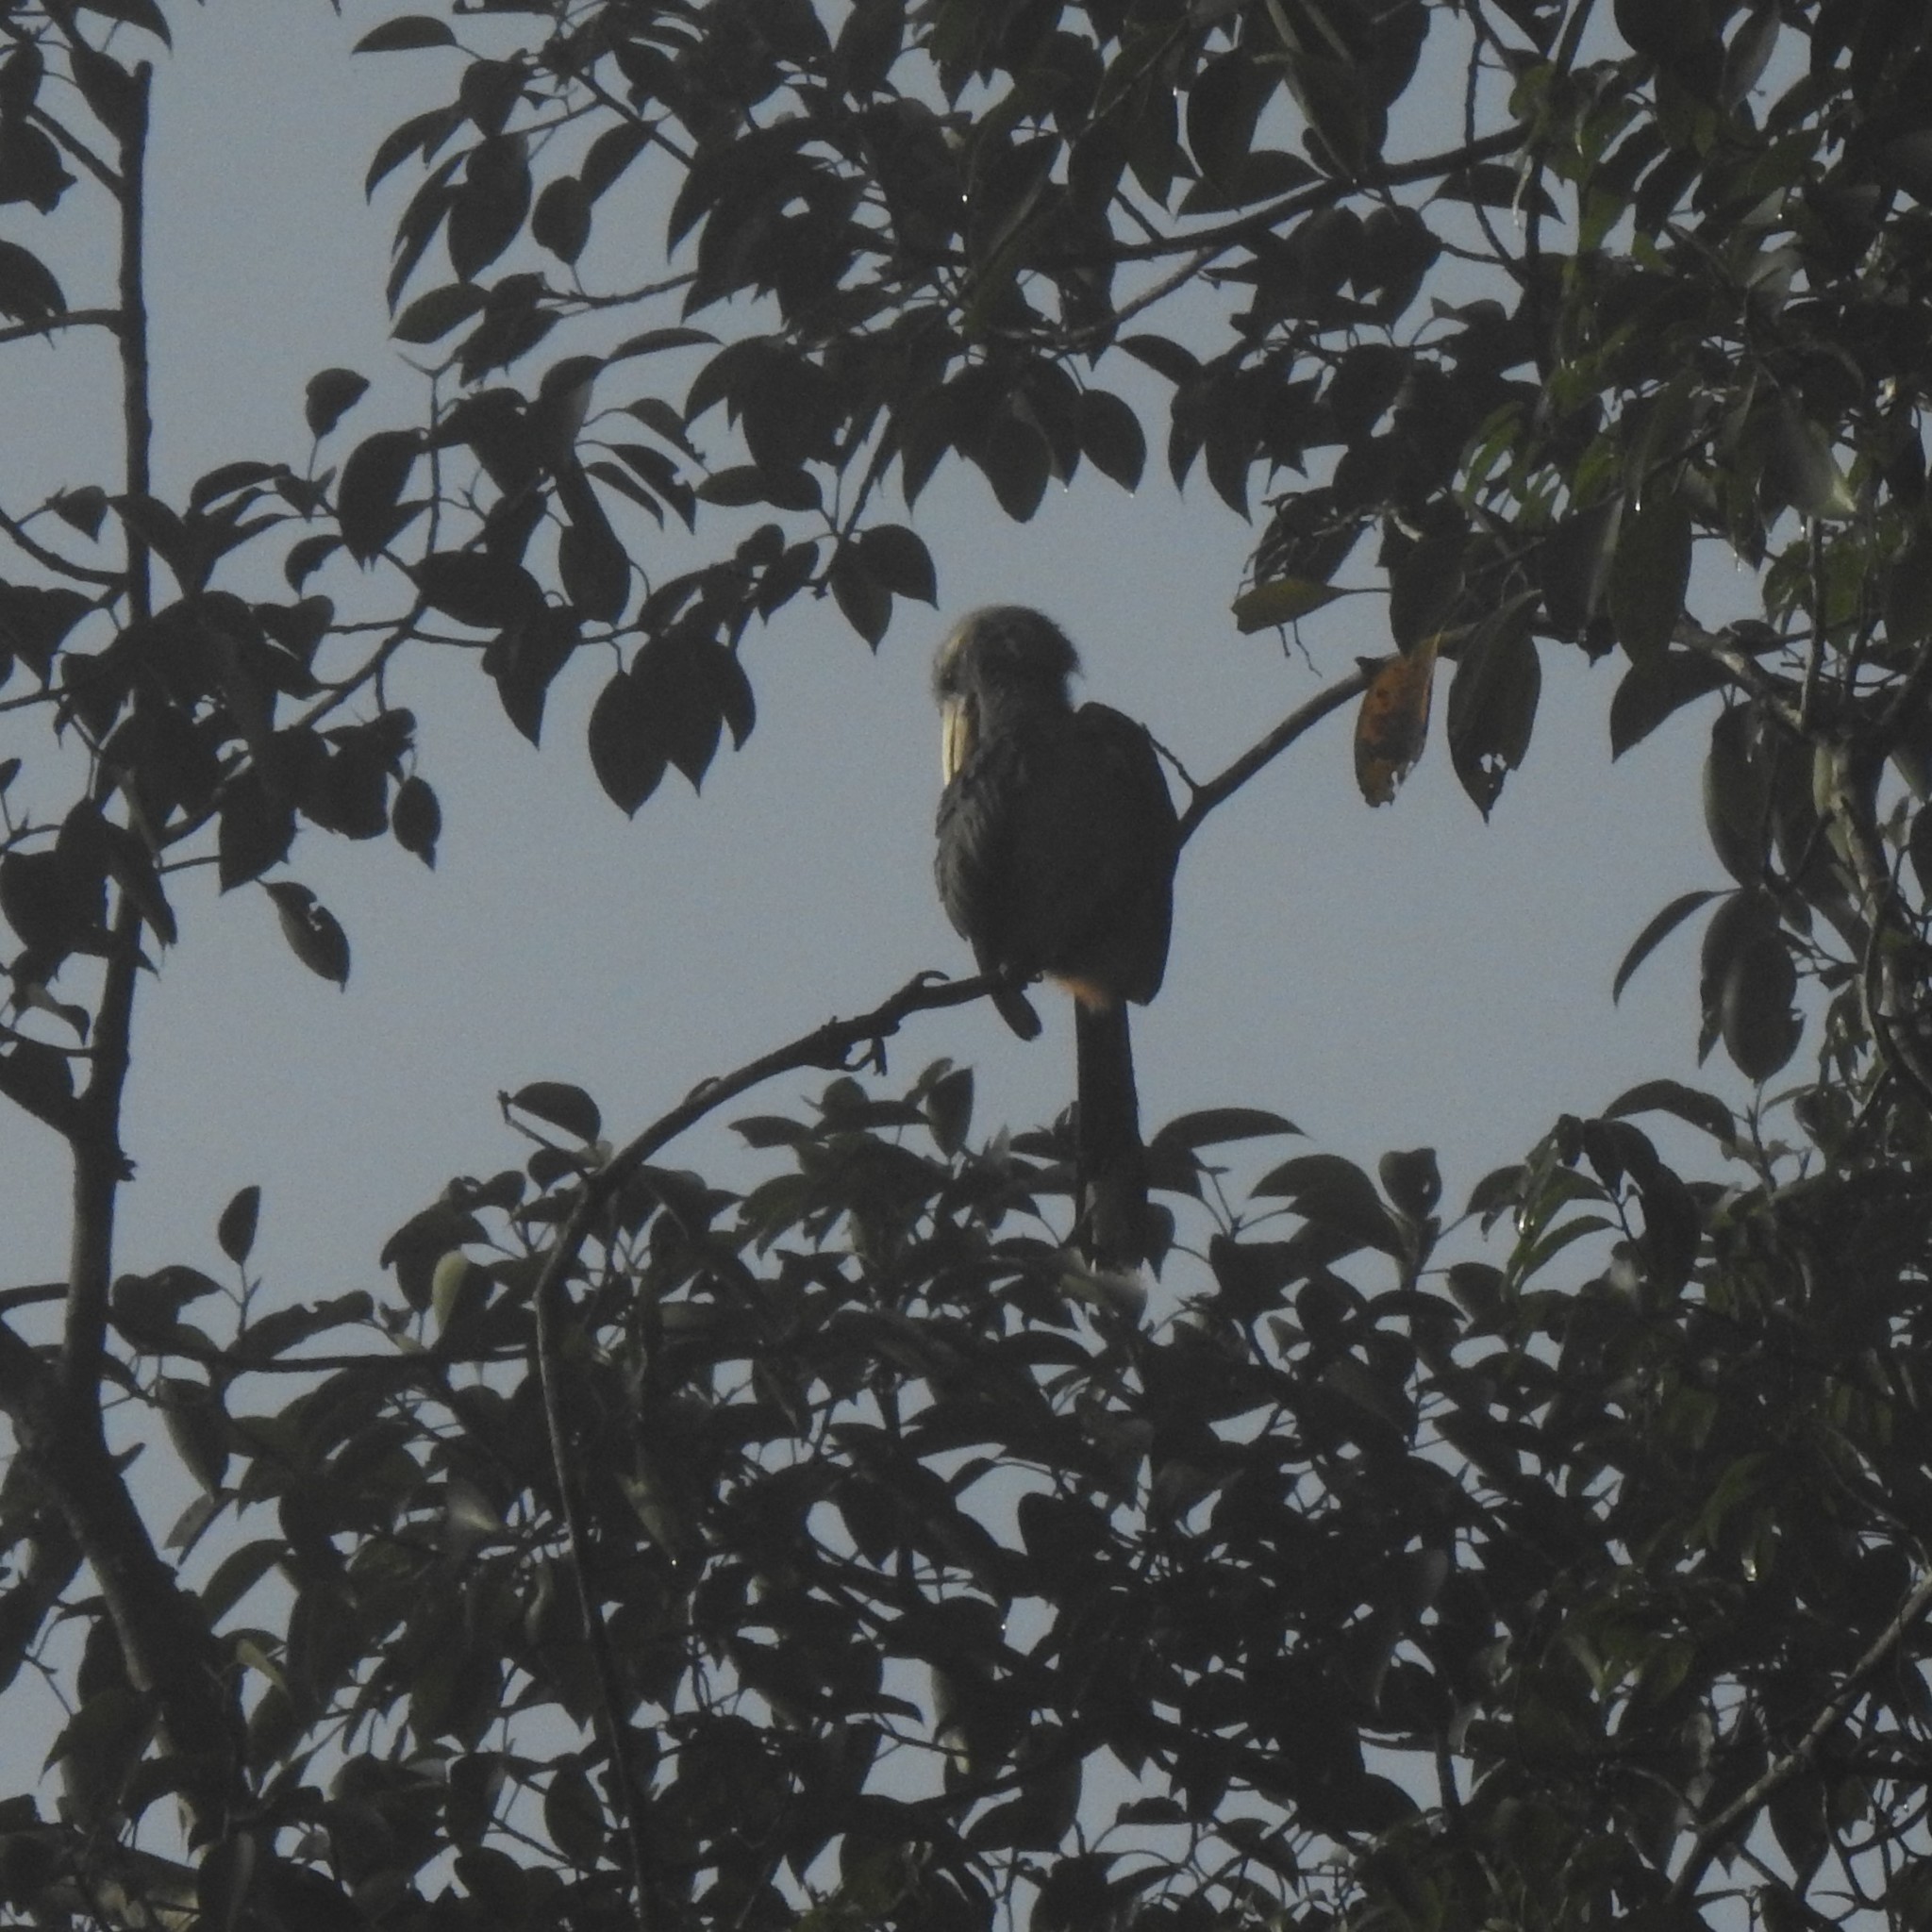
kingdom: Animalia
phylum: Chordata
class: Aves
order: Bucerotiformes
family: Bucerotidae
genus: Ocyceros
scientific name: Ocyceros griseus
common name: Malabar grey hornbill
